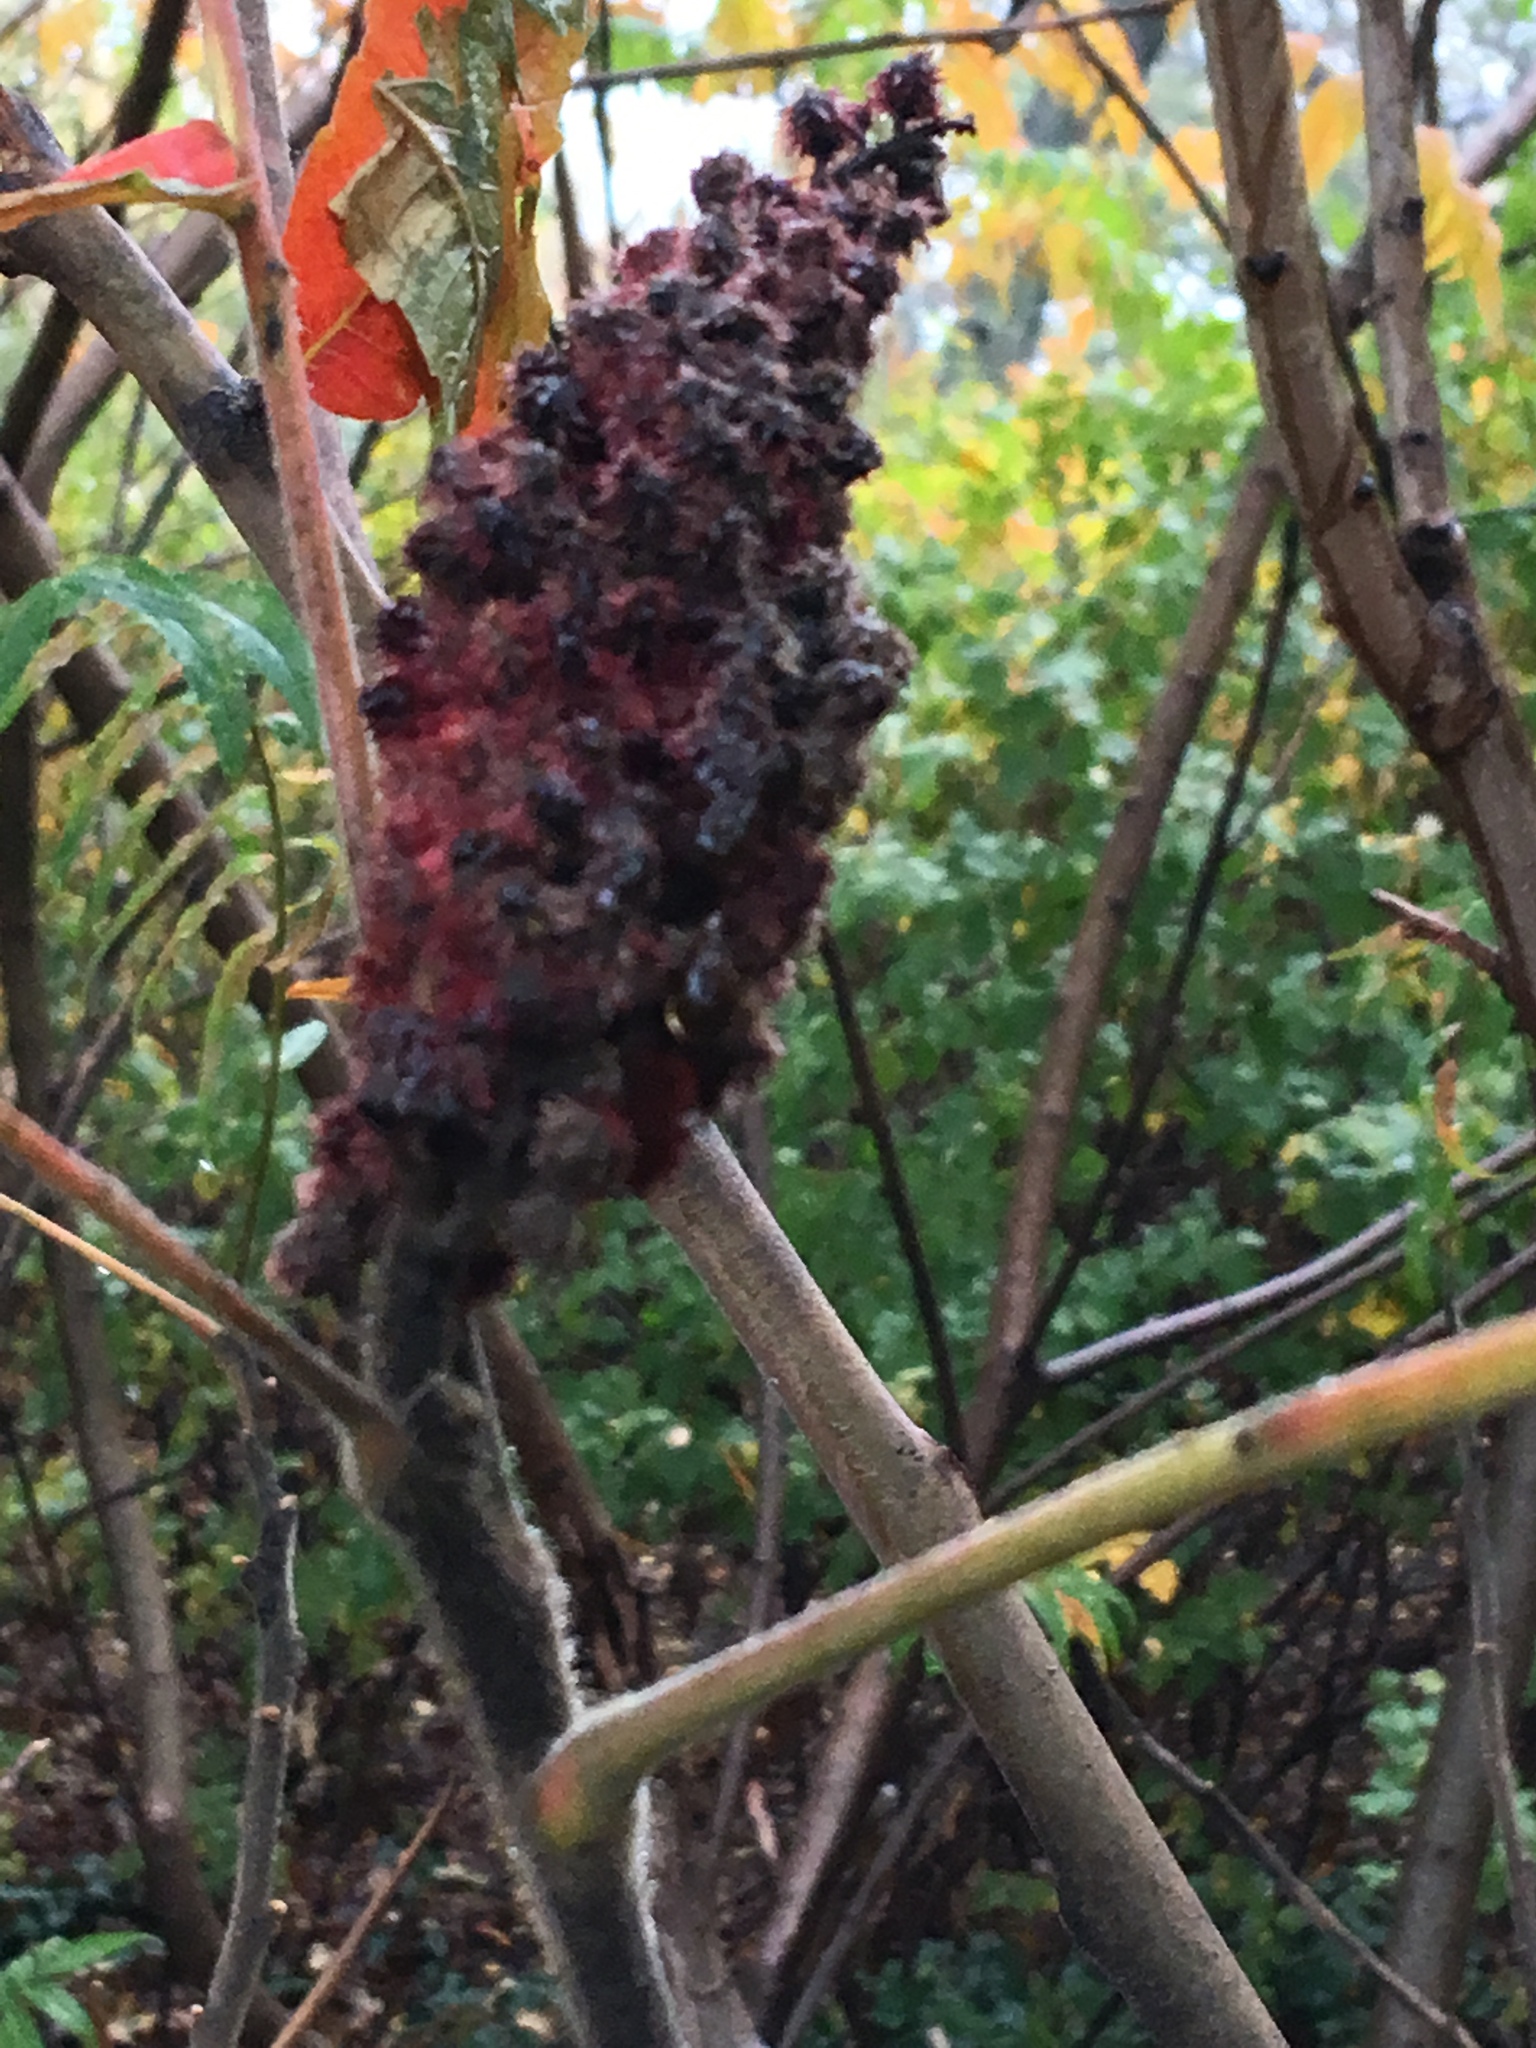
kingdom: Plantae
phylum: Tracheophyta
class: Magnoliopsida
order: Sapindales
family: Anacardiaceae
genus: Rhus
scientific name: Rhus typhina
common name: Staghorn sumac
